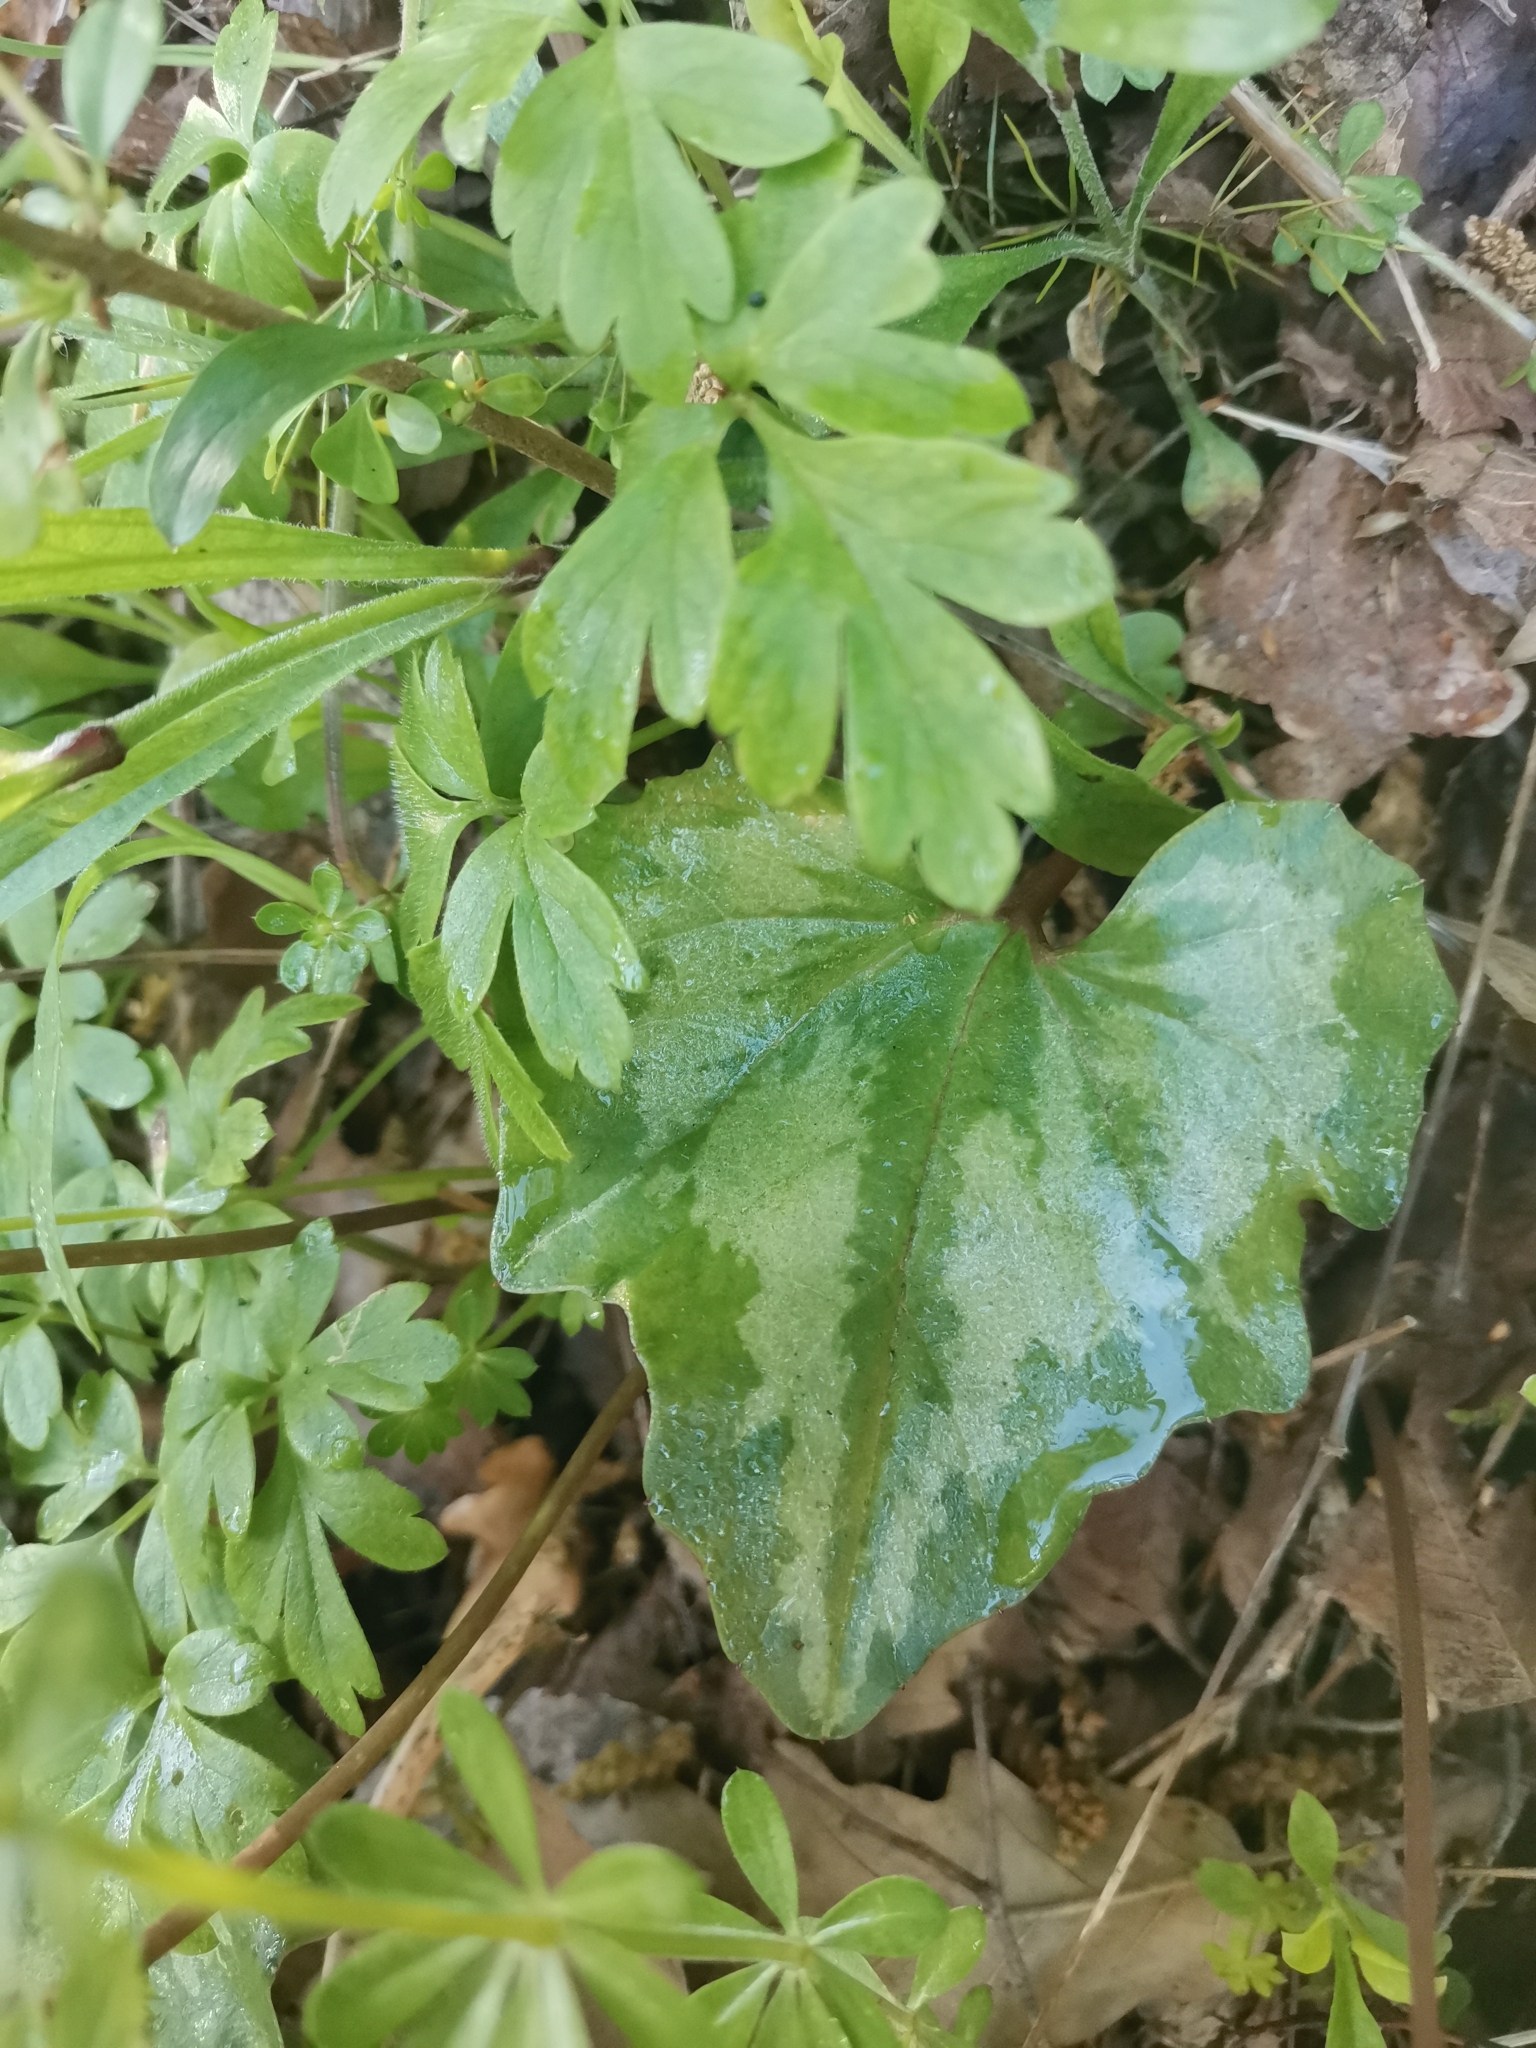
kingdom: Plantae
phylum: Tracheophyta
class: Magnoliopsida
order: Ericales
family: Primulaceae
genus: Cyclamen
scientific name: Cyclamen repandum
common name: Spring sowbread
